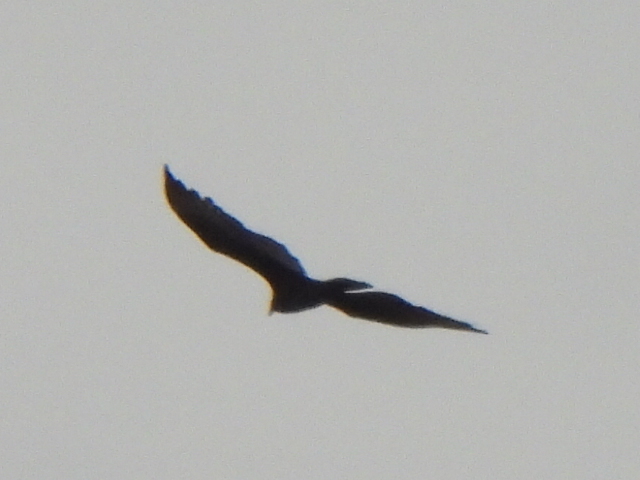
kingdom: Animalia
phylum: Chordata
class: Aves
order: Accipitriformes
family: Cathartidae
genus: Cathartes
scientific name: Cathartes aura
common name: Turkey vulture
